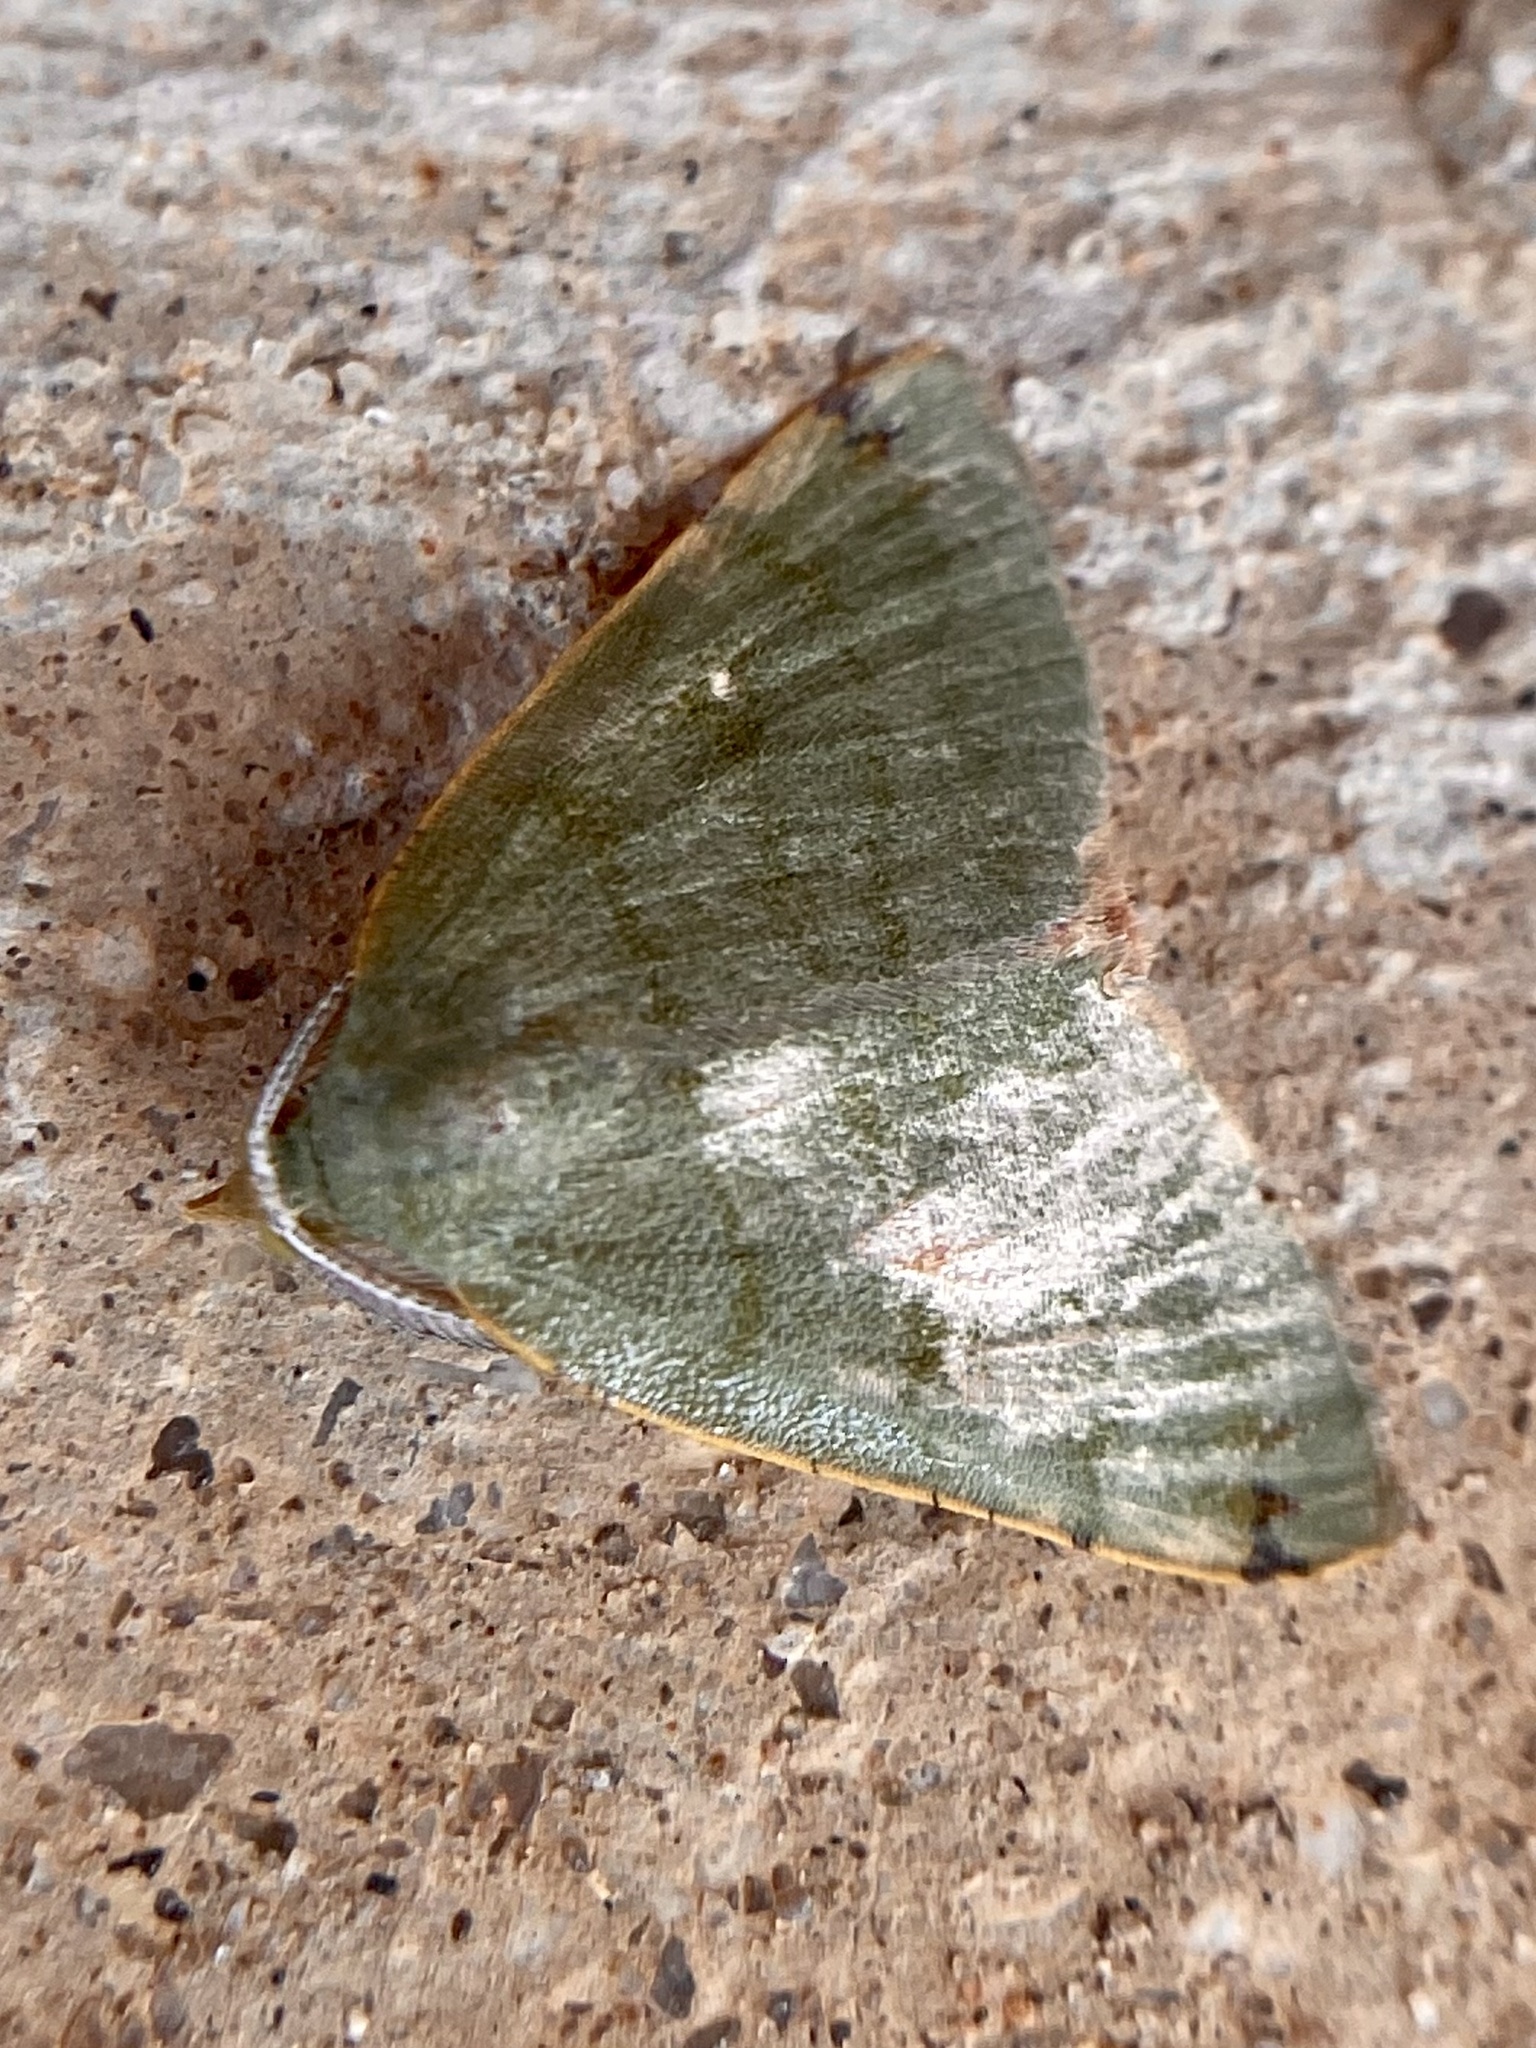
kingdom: Animalia
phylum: Arthropoda
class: Insecta
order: Lepidoptera
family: Geometridae
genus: Chloraspilates
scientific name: Chloraspilates bicoloraria
